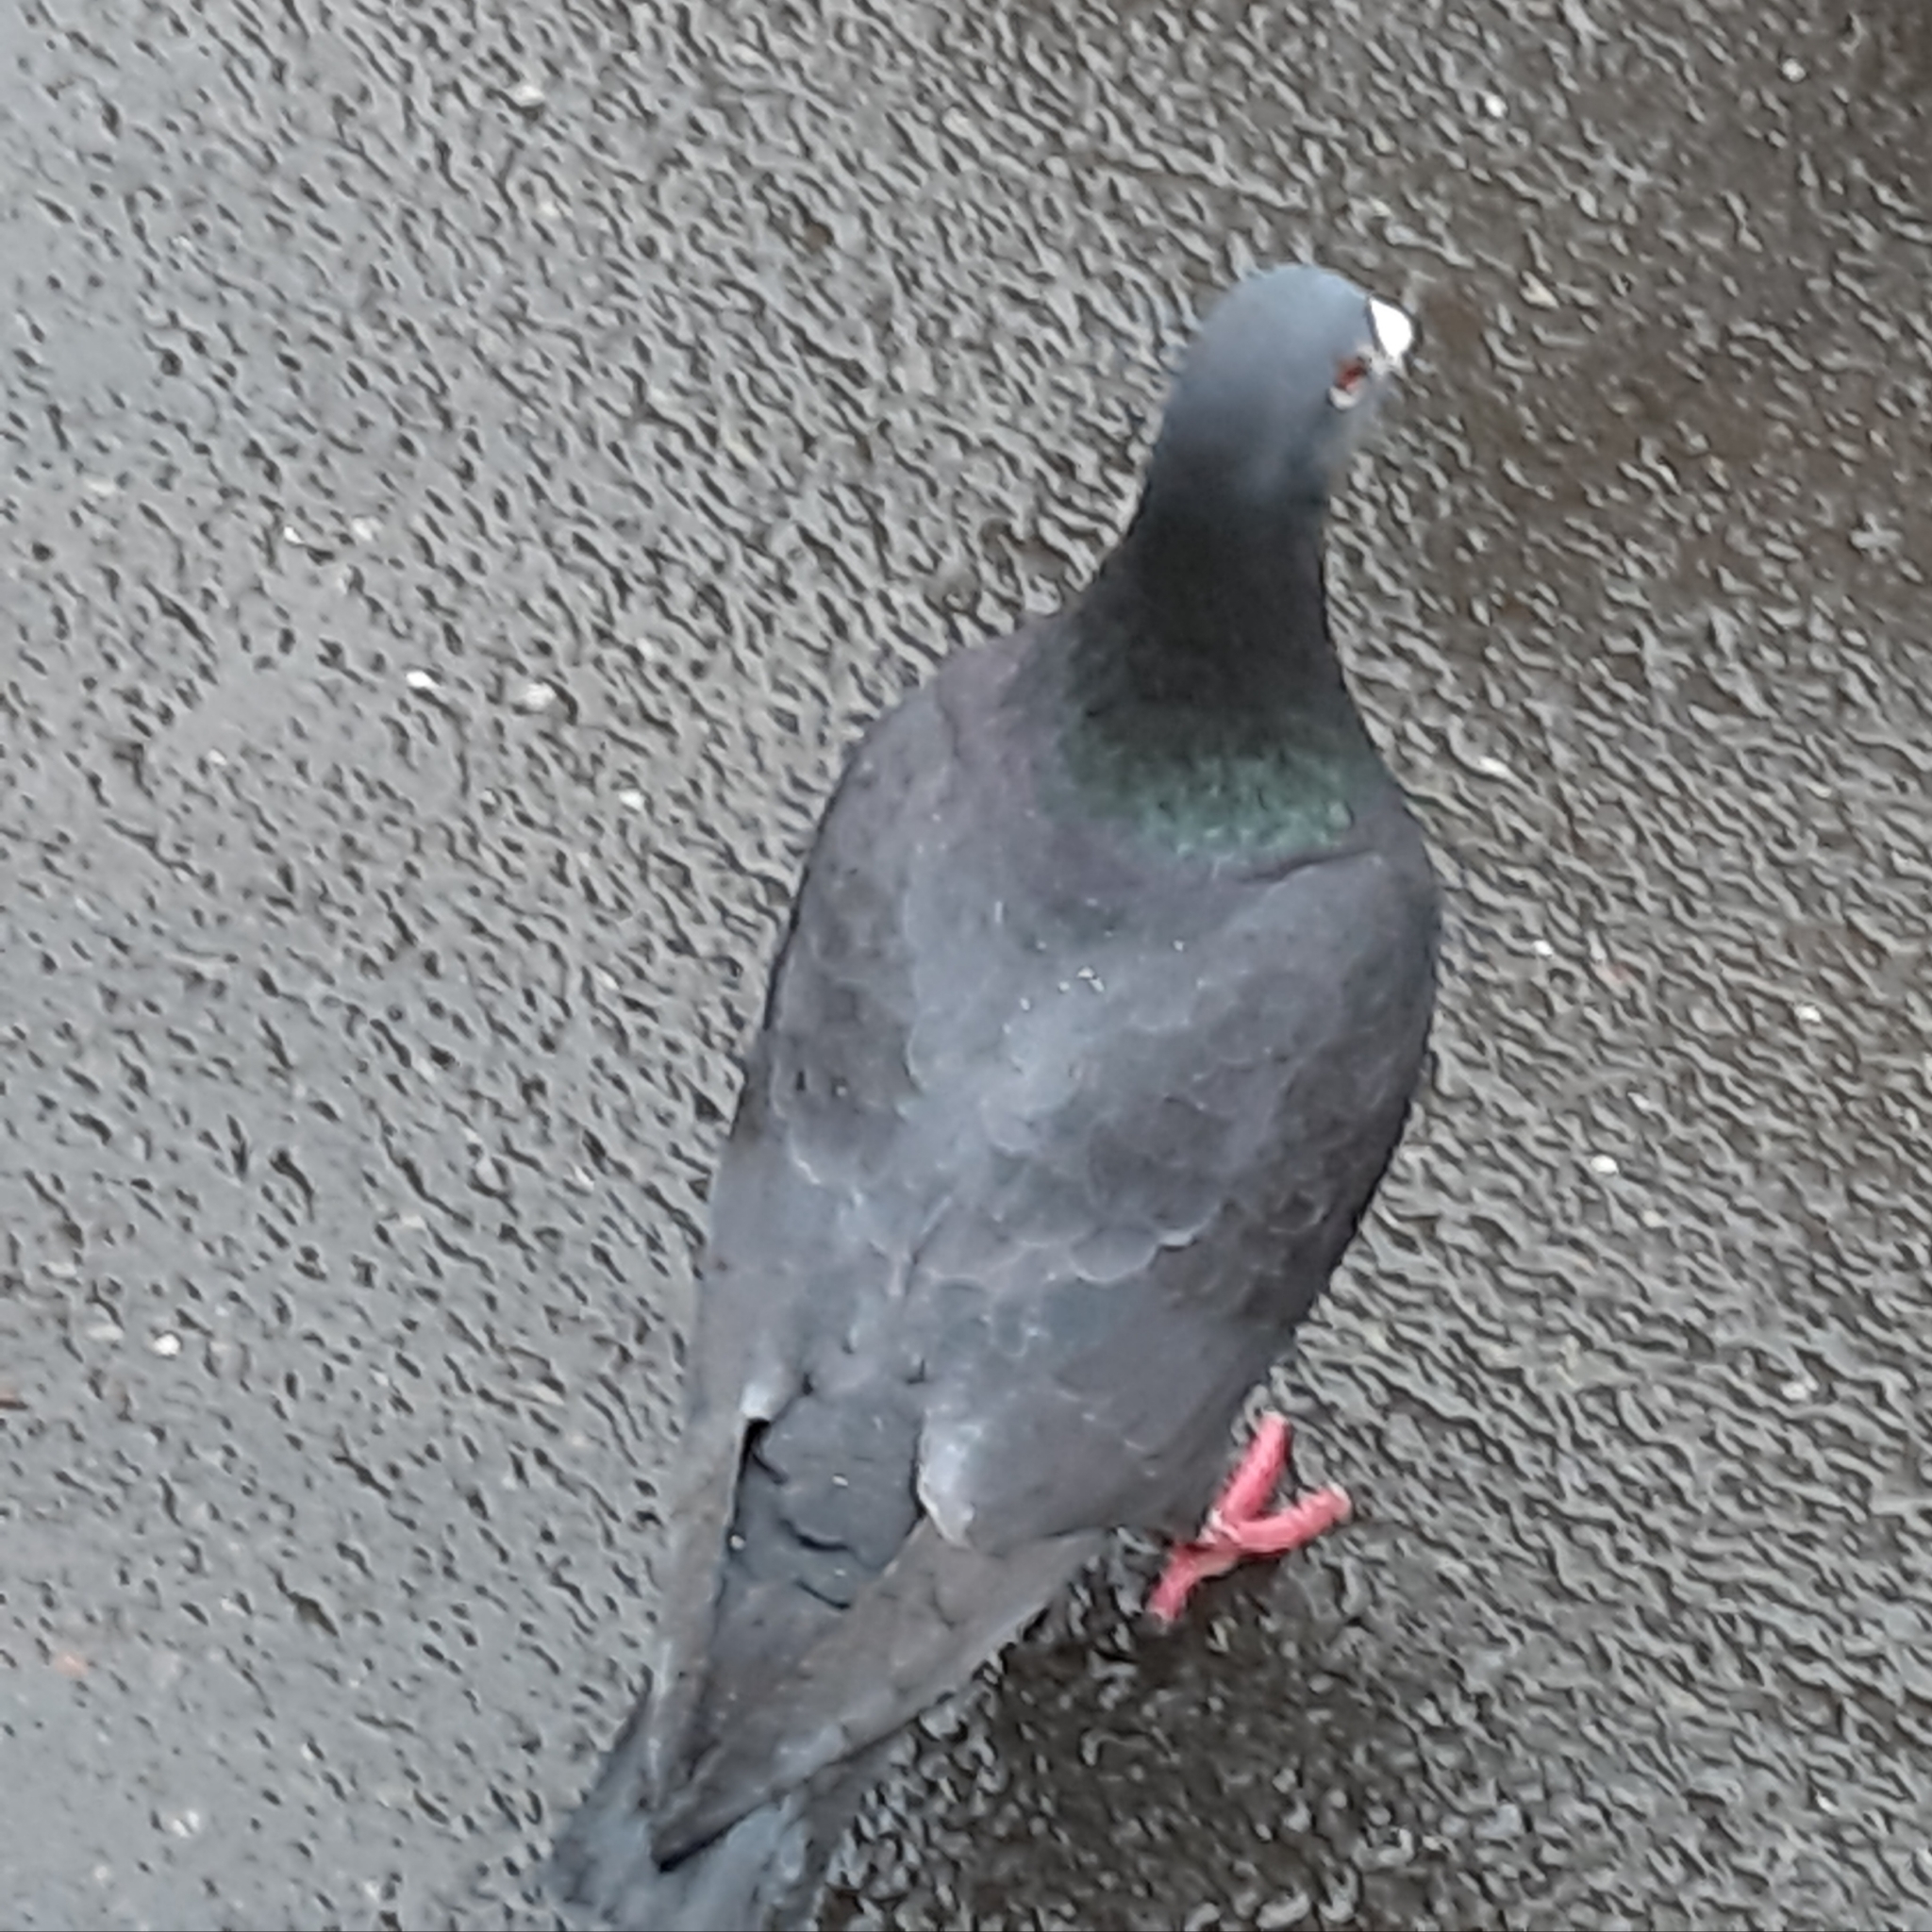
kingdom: Animalia
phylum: Chordata
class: Aves
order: Columbiformes
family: Columbidae
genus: Columba
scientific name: Columba livia
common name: Rock pigeon
